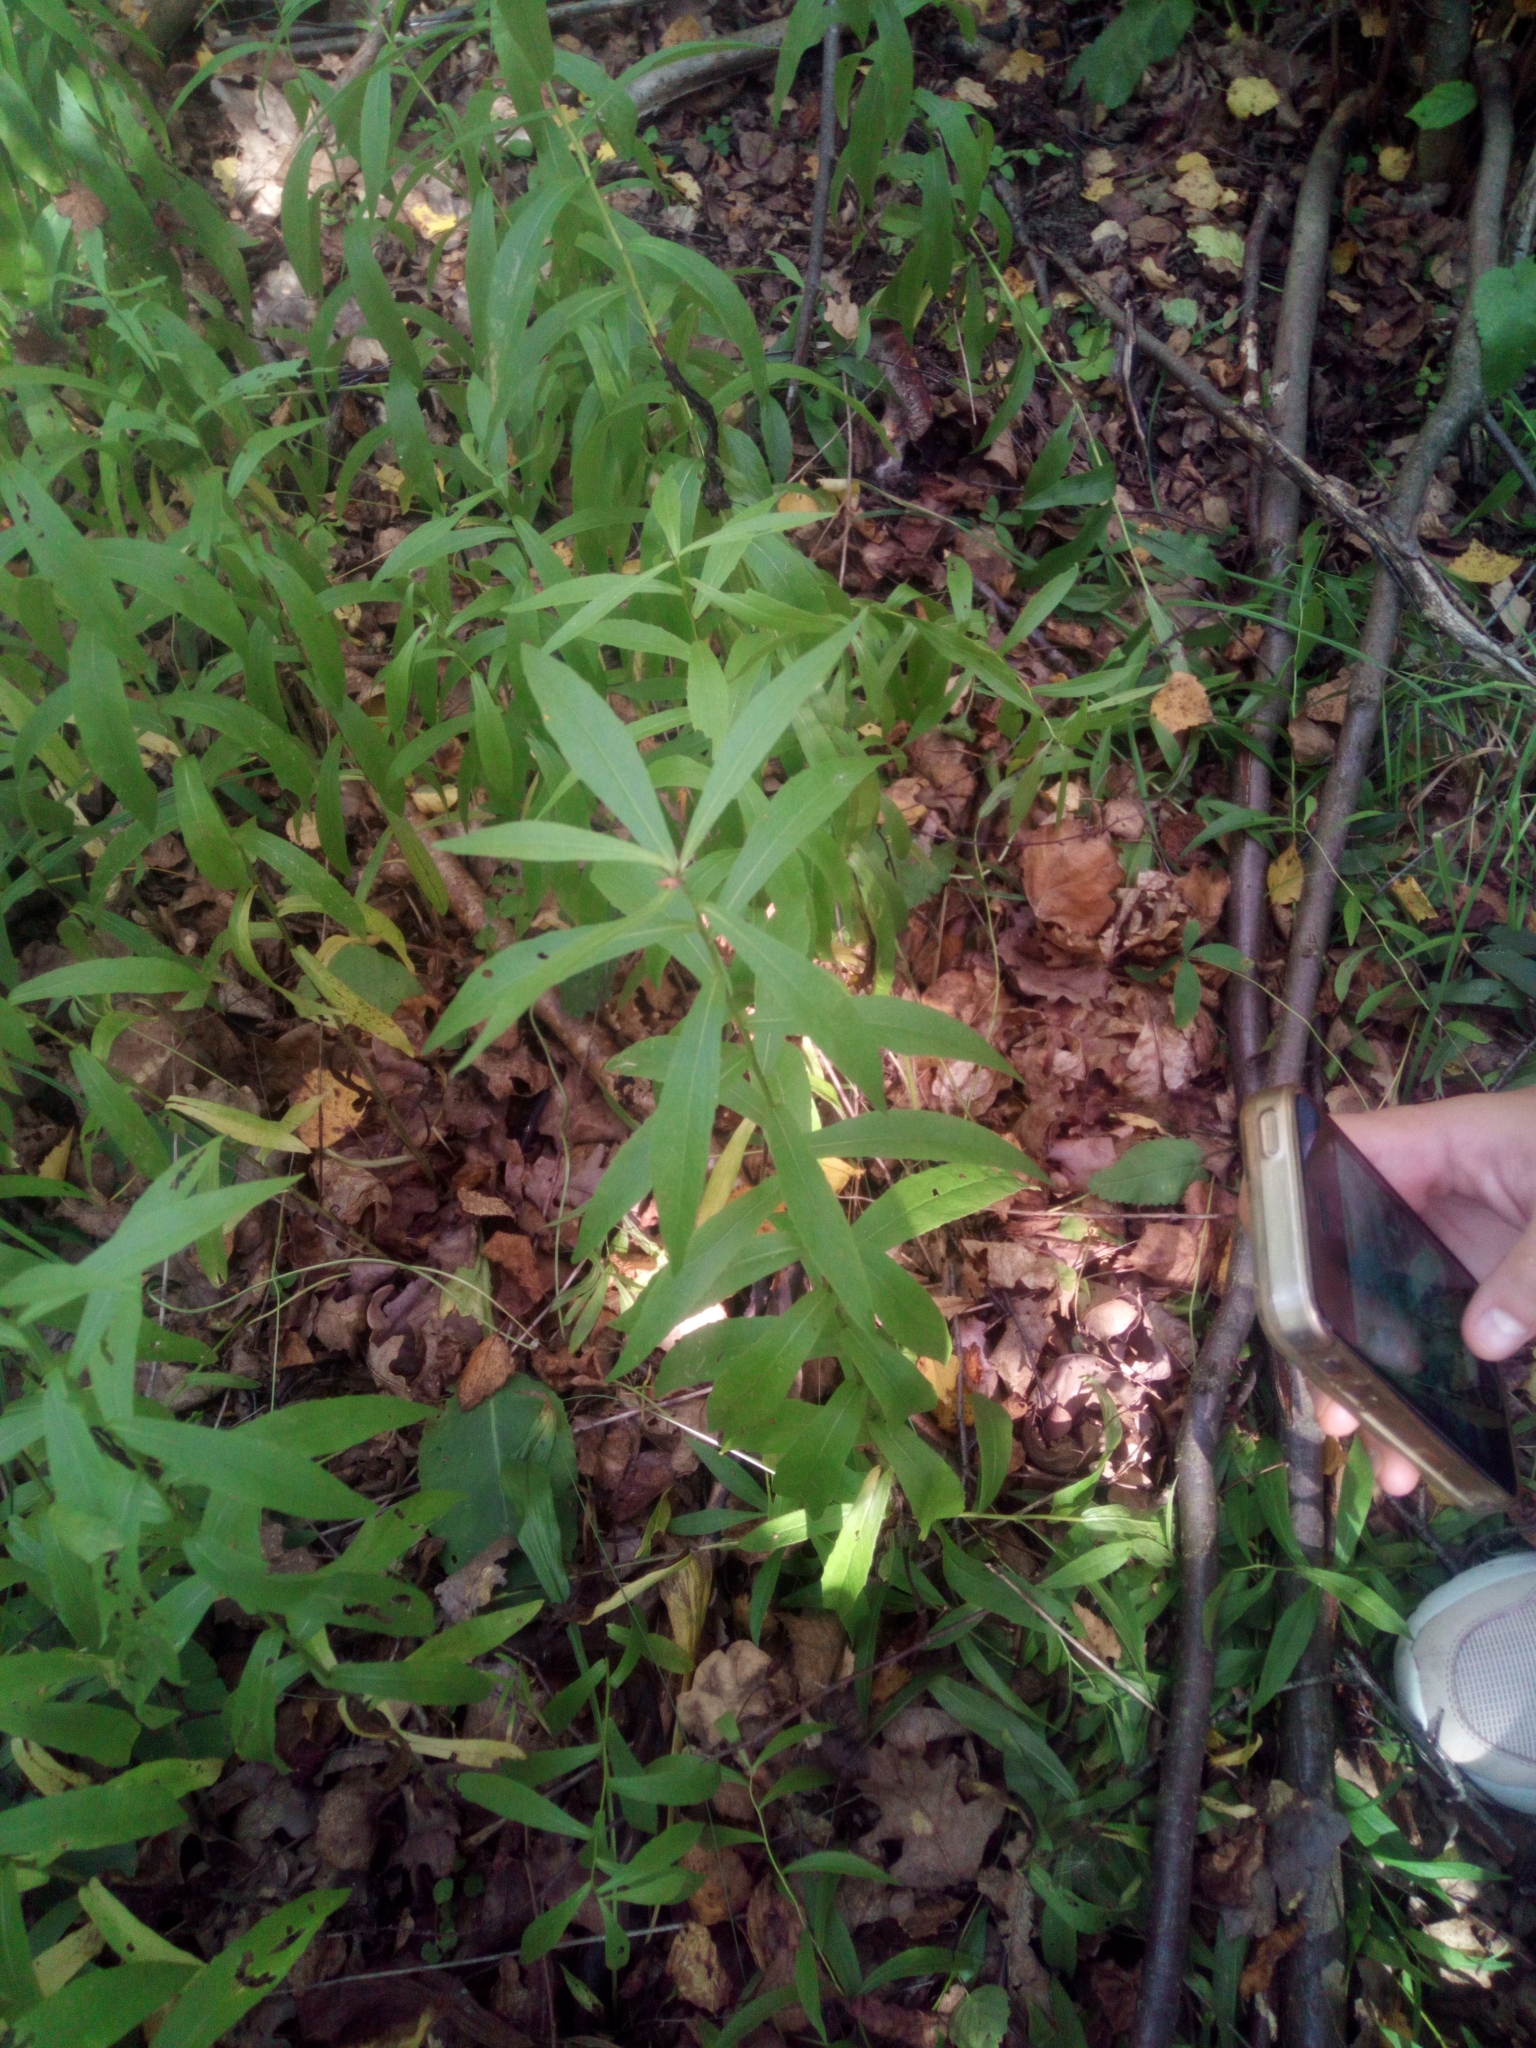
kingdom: Plantae
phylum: Tracheophyta
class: Magnoliopsida
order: Asterales
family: Asteraceae
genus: Pentanema
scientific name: Pentanema salicinum
